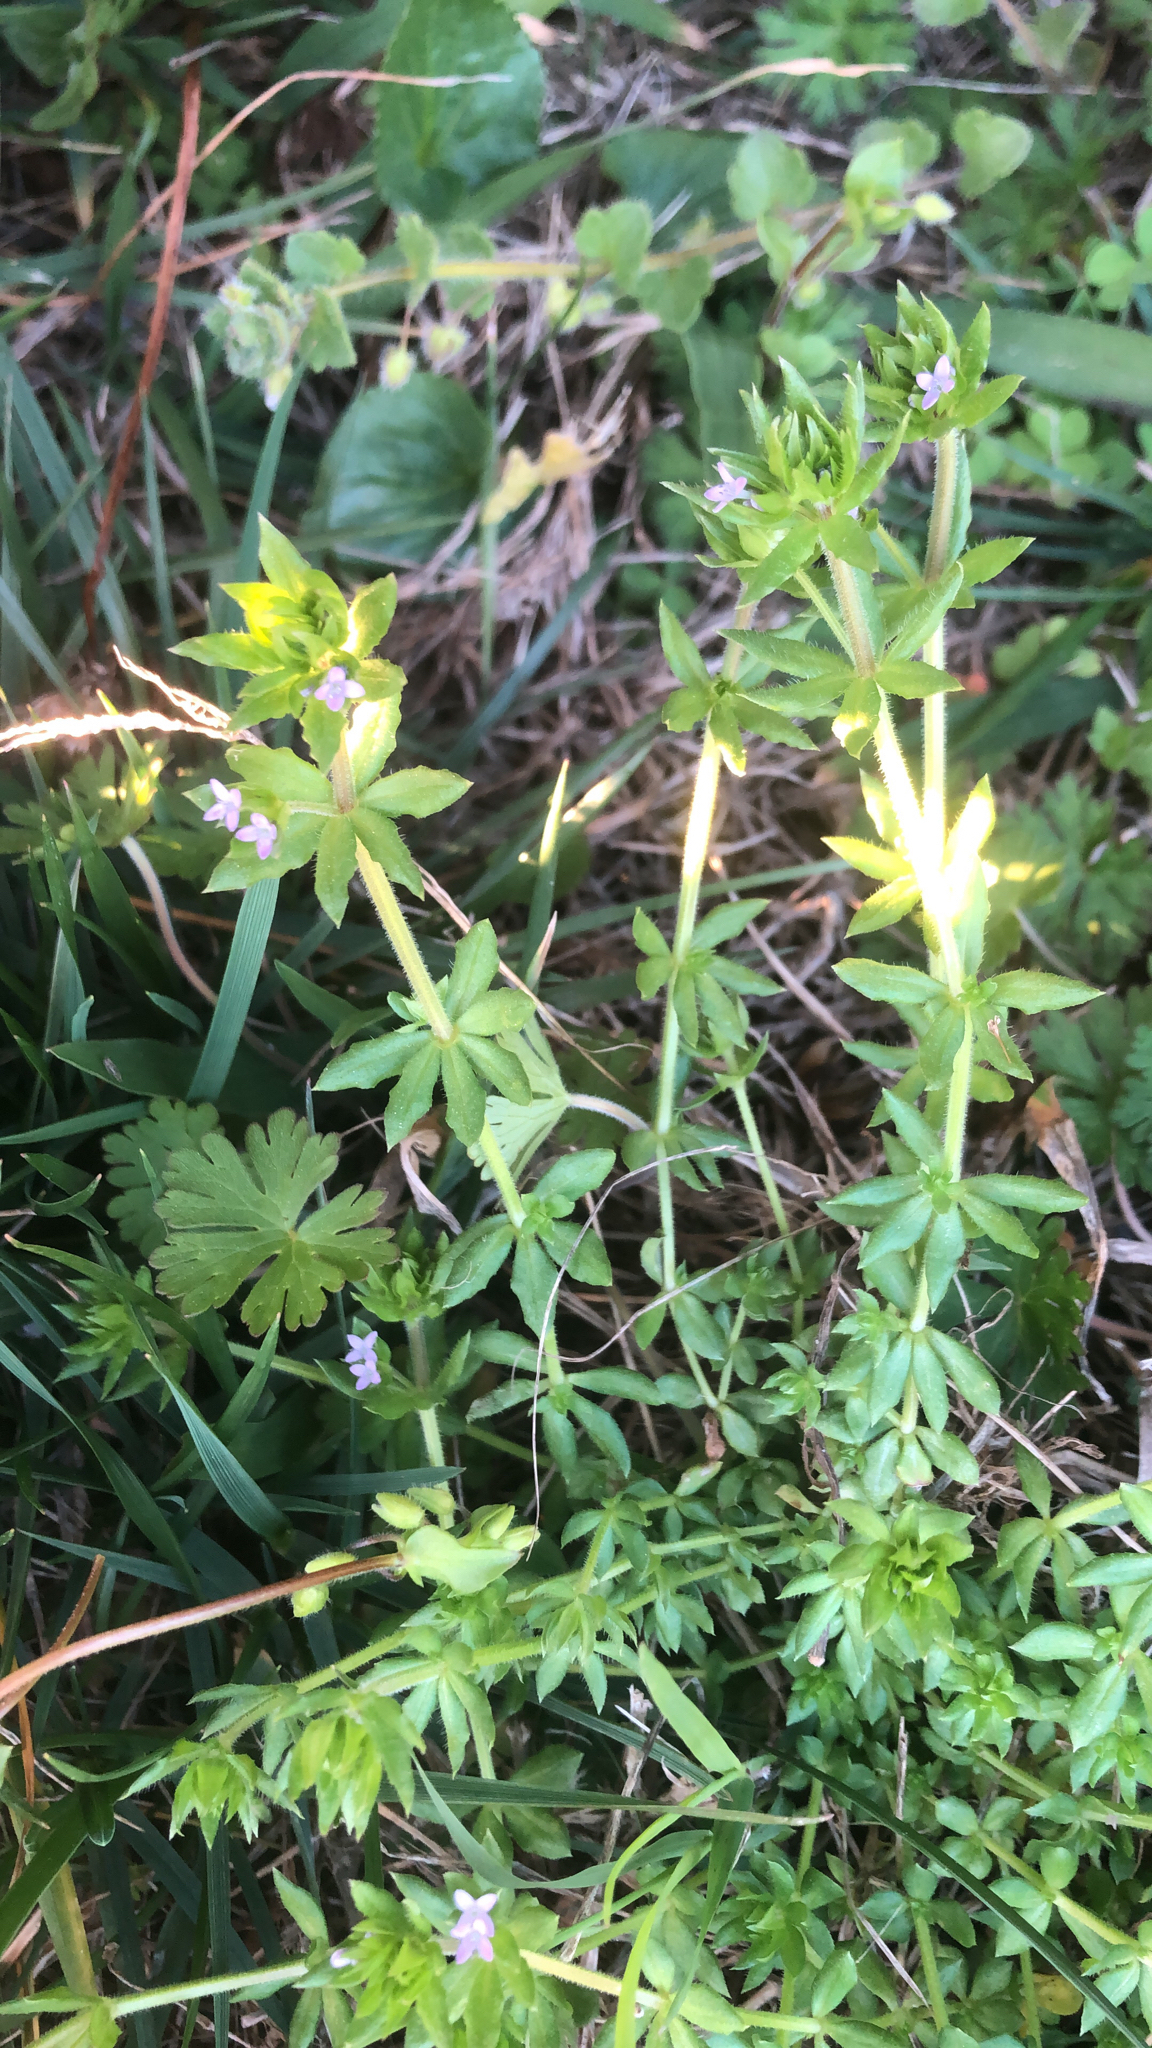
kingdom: Plantae
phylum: Tracheophyta
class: Magnoliopsida
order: Gentianales
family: Rubiaceae
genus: Sherardia
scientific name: Sherardia arvensis
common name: Field madder
